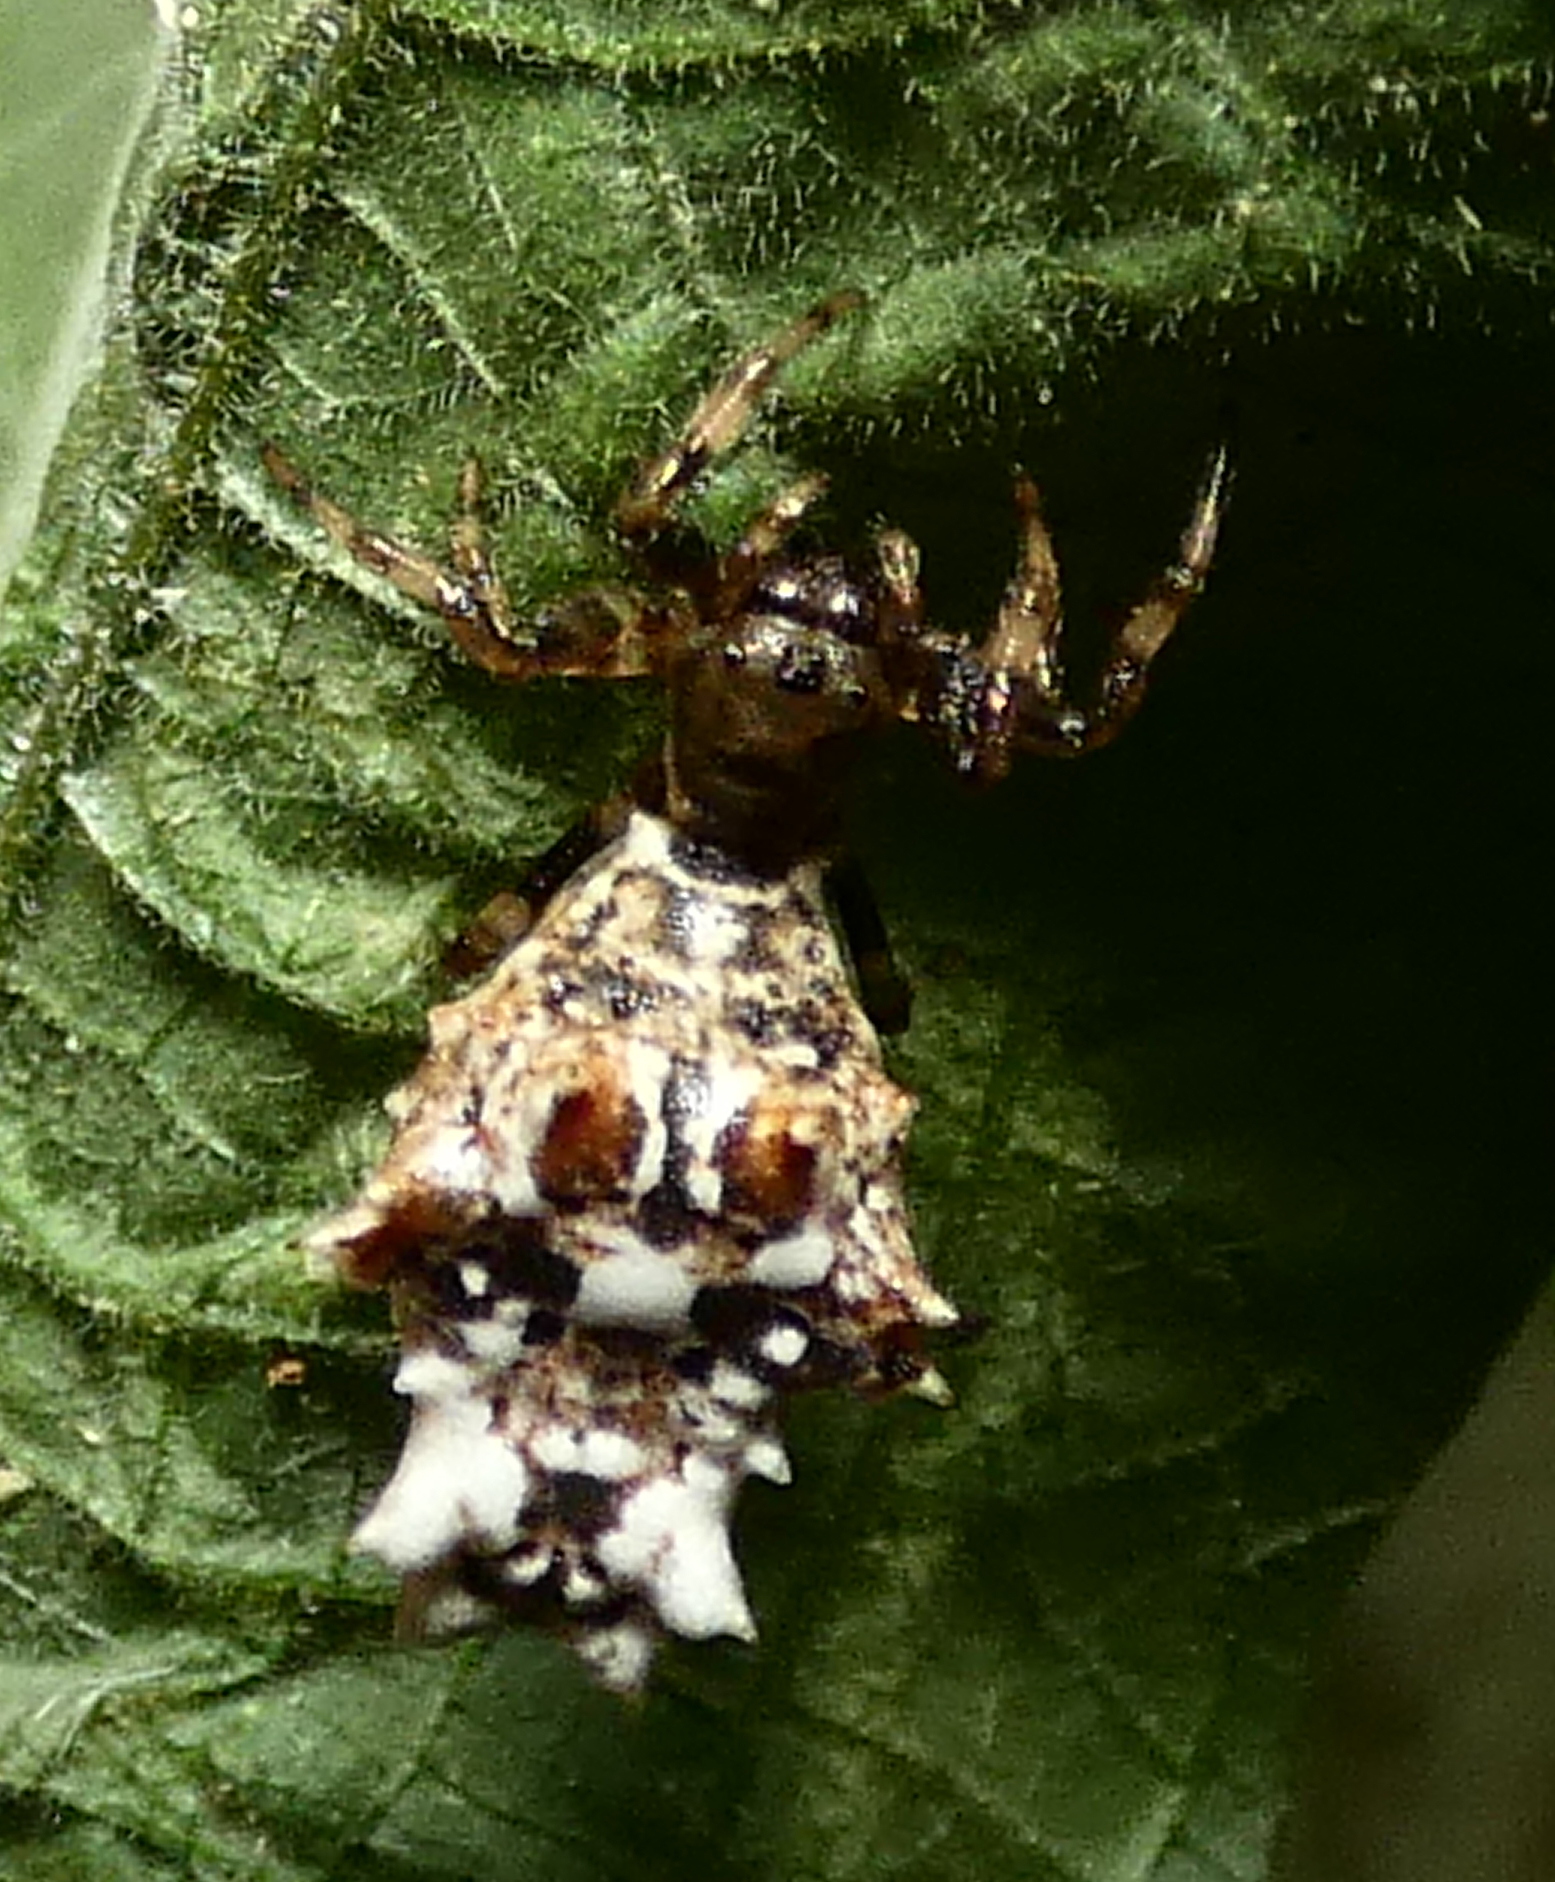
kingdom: Animalia
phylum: Arthropoda
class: Arachnida
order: Araneae
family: Araneidae
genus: Micrathena
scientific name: Micrathena horrida
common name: Orb weavers
